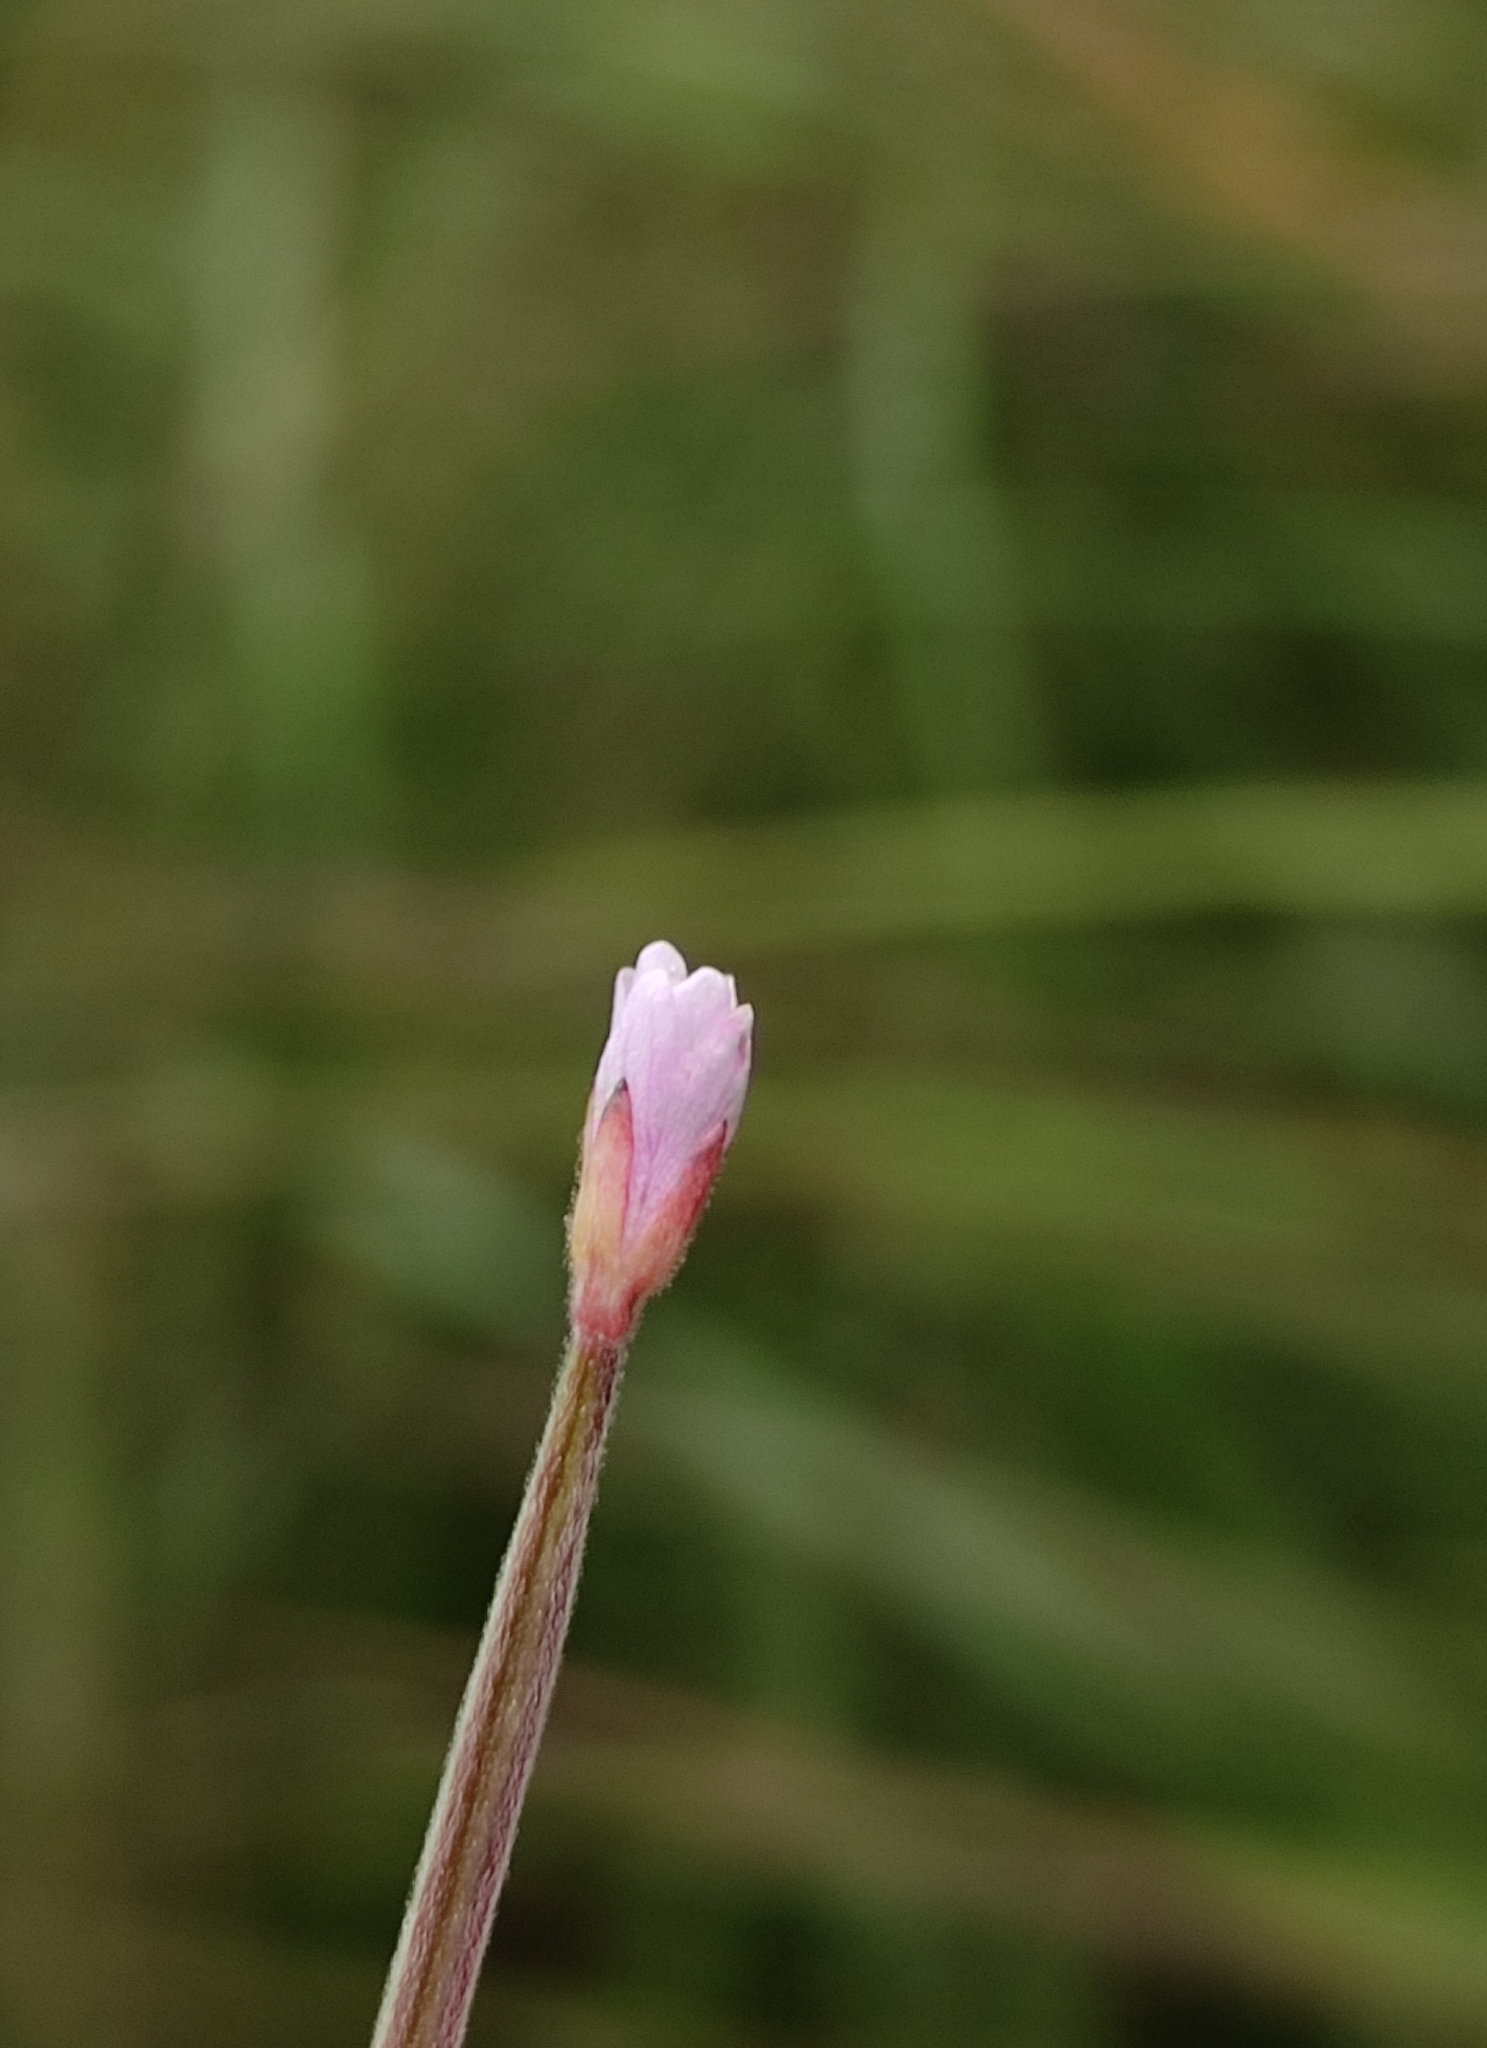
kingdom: Plantae
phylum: Tracheophyta
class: Magnoliopsida
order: Myrtales
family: Onagraceae
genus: Epilobium
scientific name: Epilobium palustre
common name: Marsh willowherb
